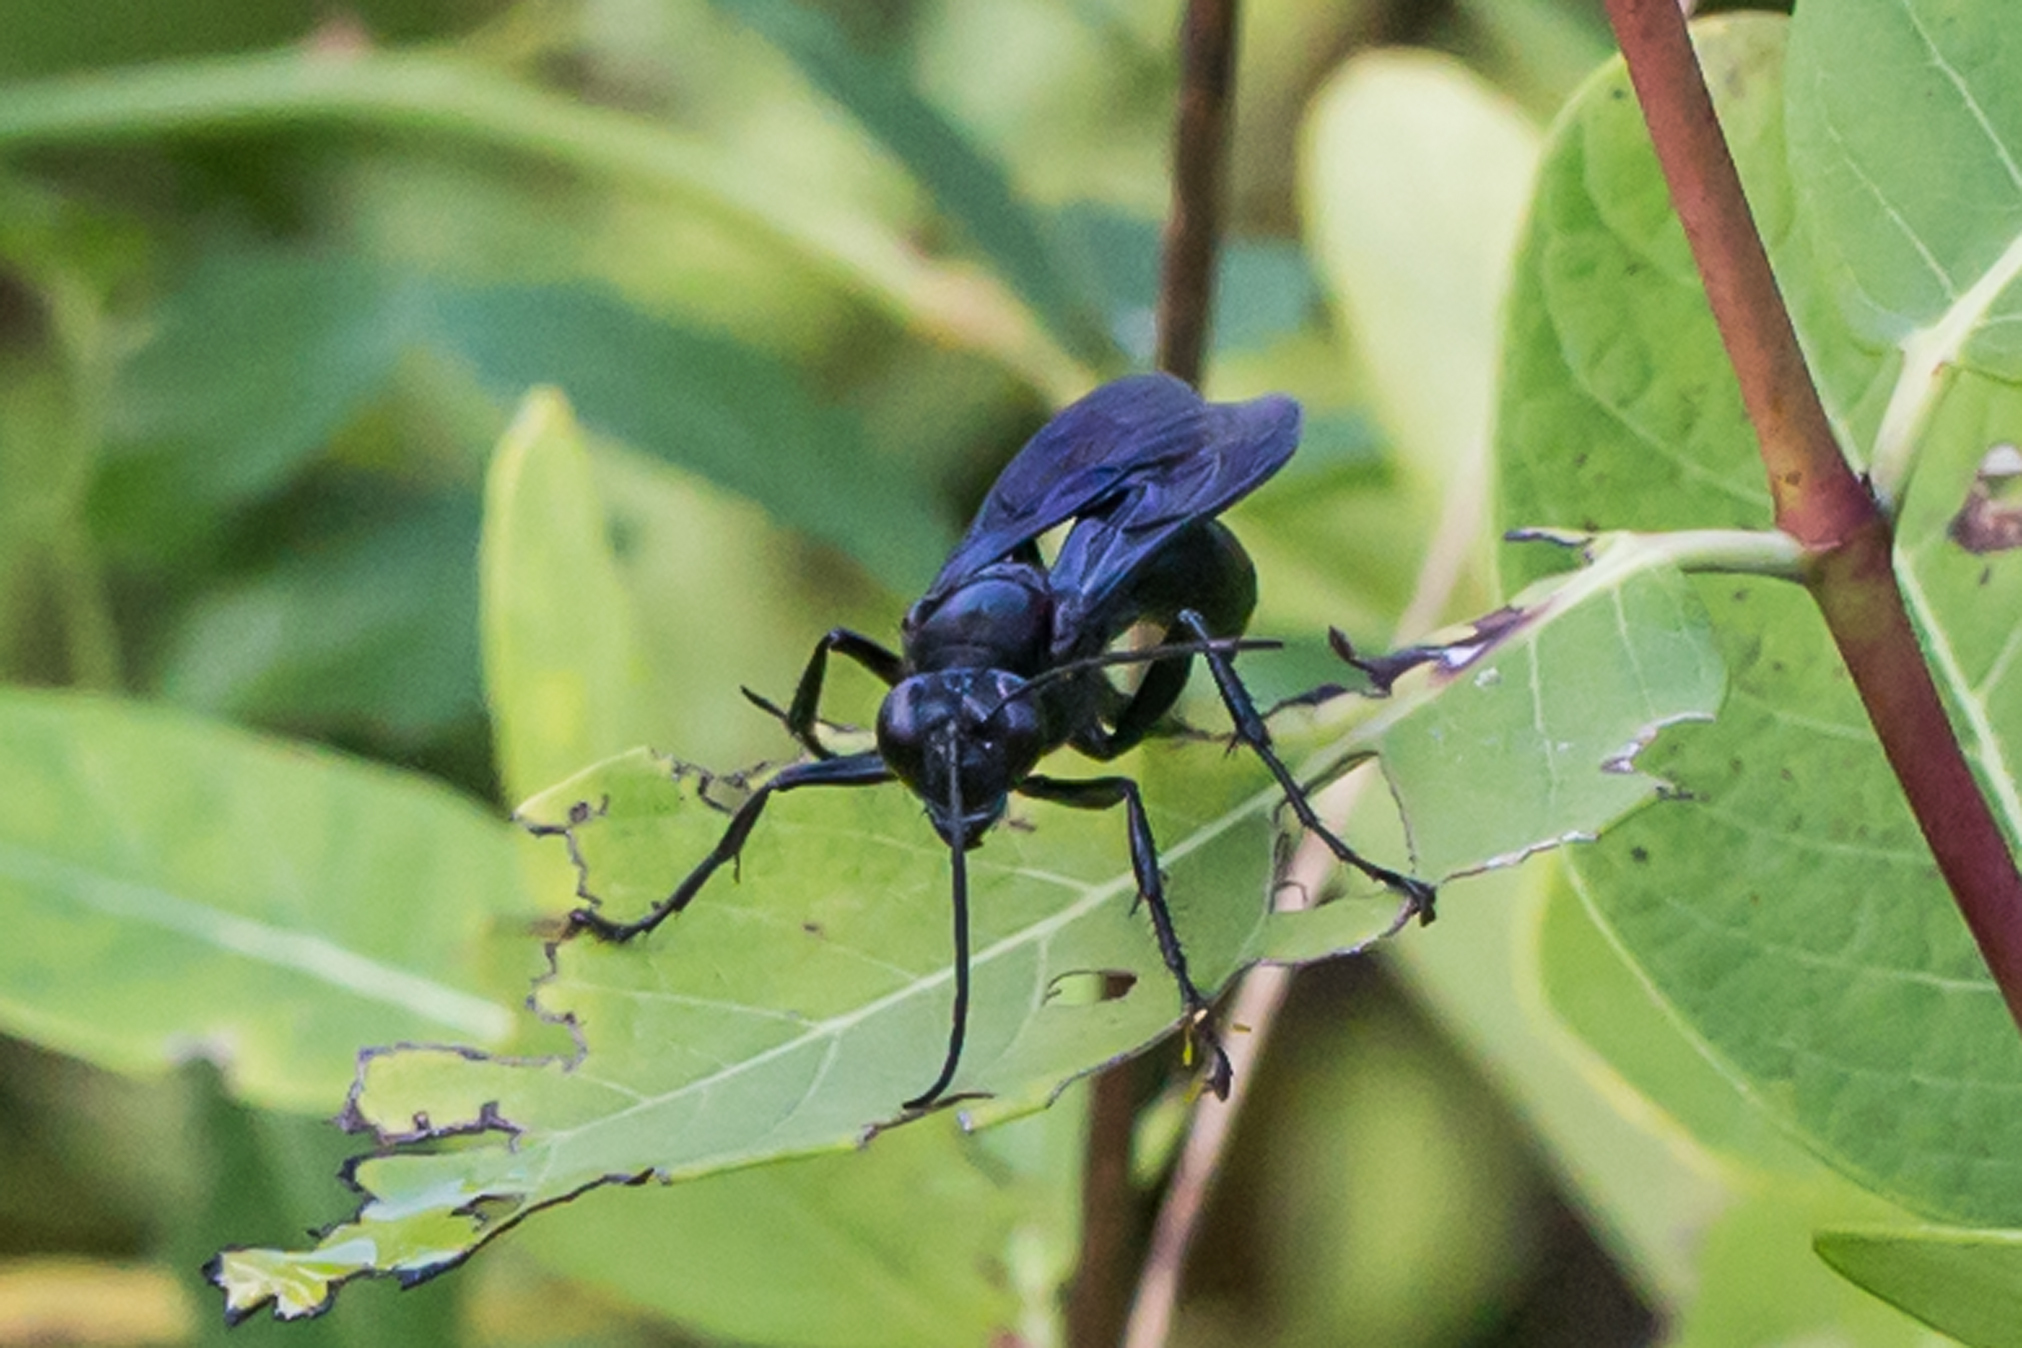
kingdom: Animalia
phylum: Arthropoda
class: Insecta
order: Hymenoptera
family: Sphecidae
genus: Sphex
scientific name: Sphex pensylvanicus
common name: Great black digger wasp
